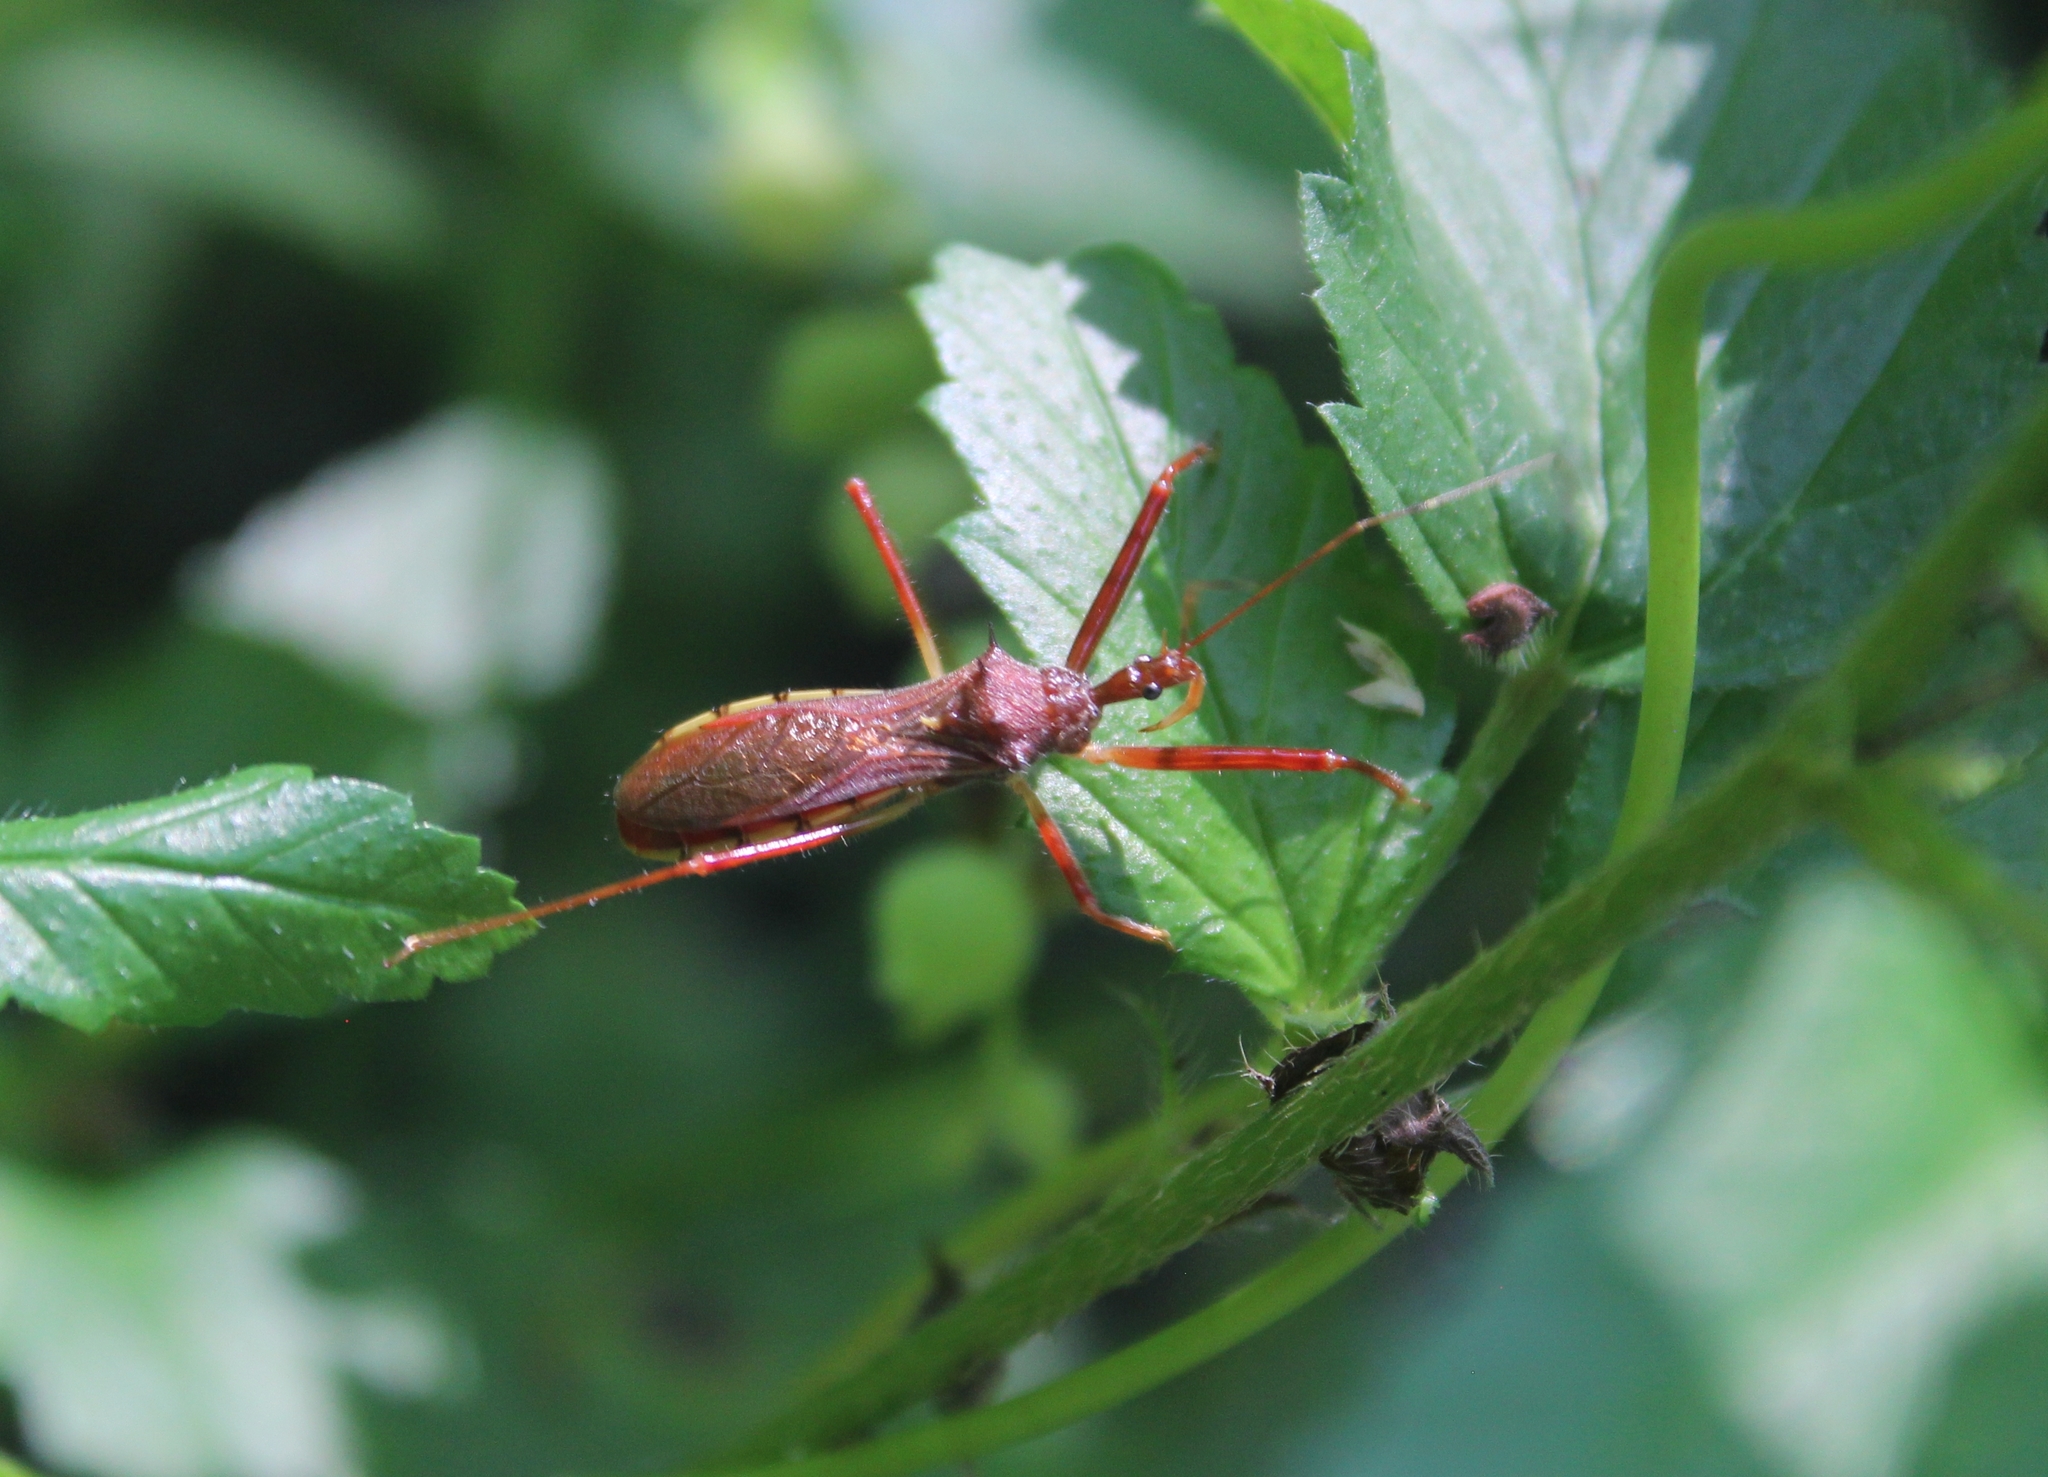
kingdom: Animalia
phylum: Arthropoda
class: Insecta
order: Hemiptera
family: Reduviidae
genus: Rocconota
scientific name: Rocconota annulicornis
